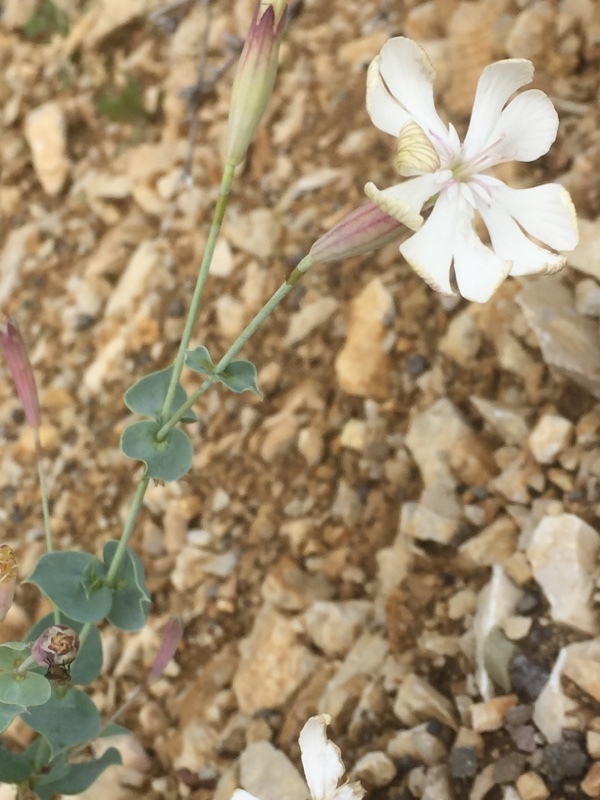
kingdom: Plantae
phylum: Tracheophyta
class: Magnoliopsida
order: Caryophyllales
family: Caryophyllaceae
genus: Silene
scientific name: Silene chlorifolia
